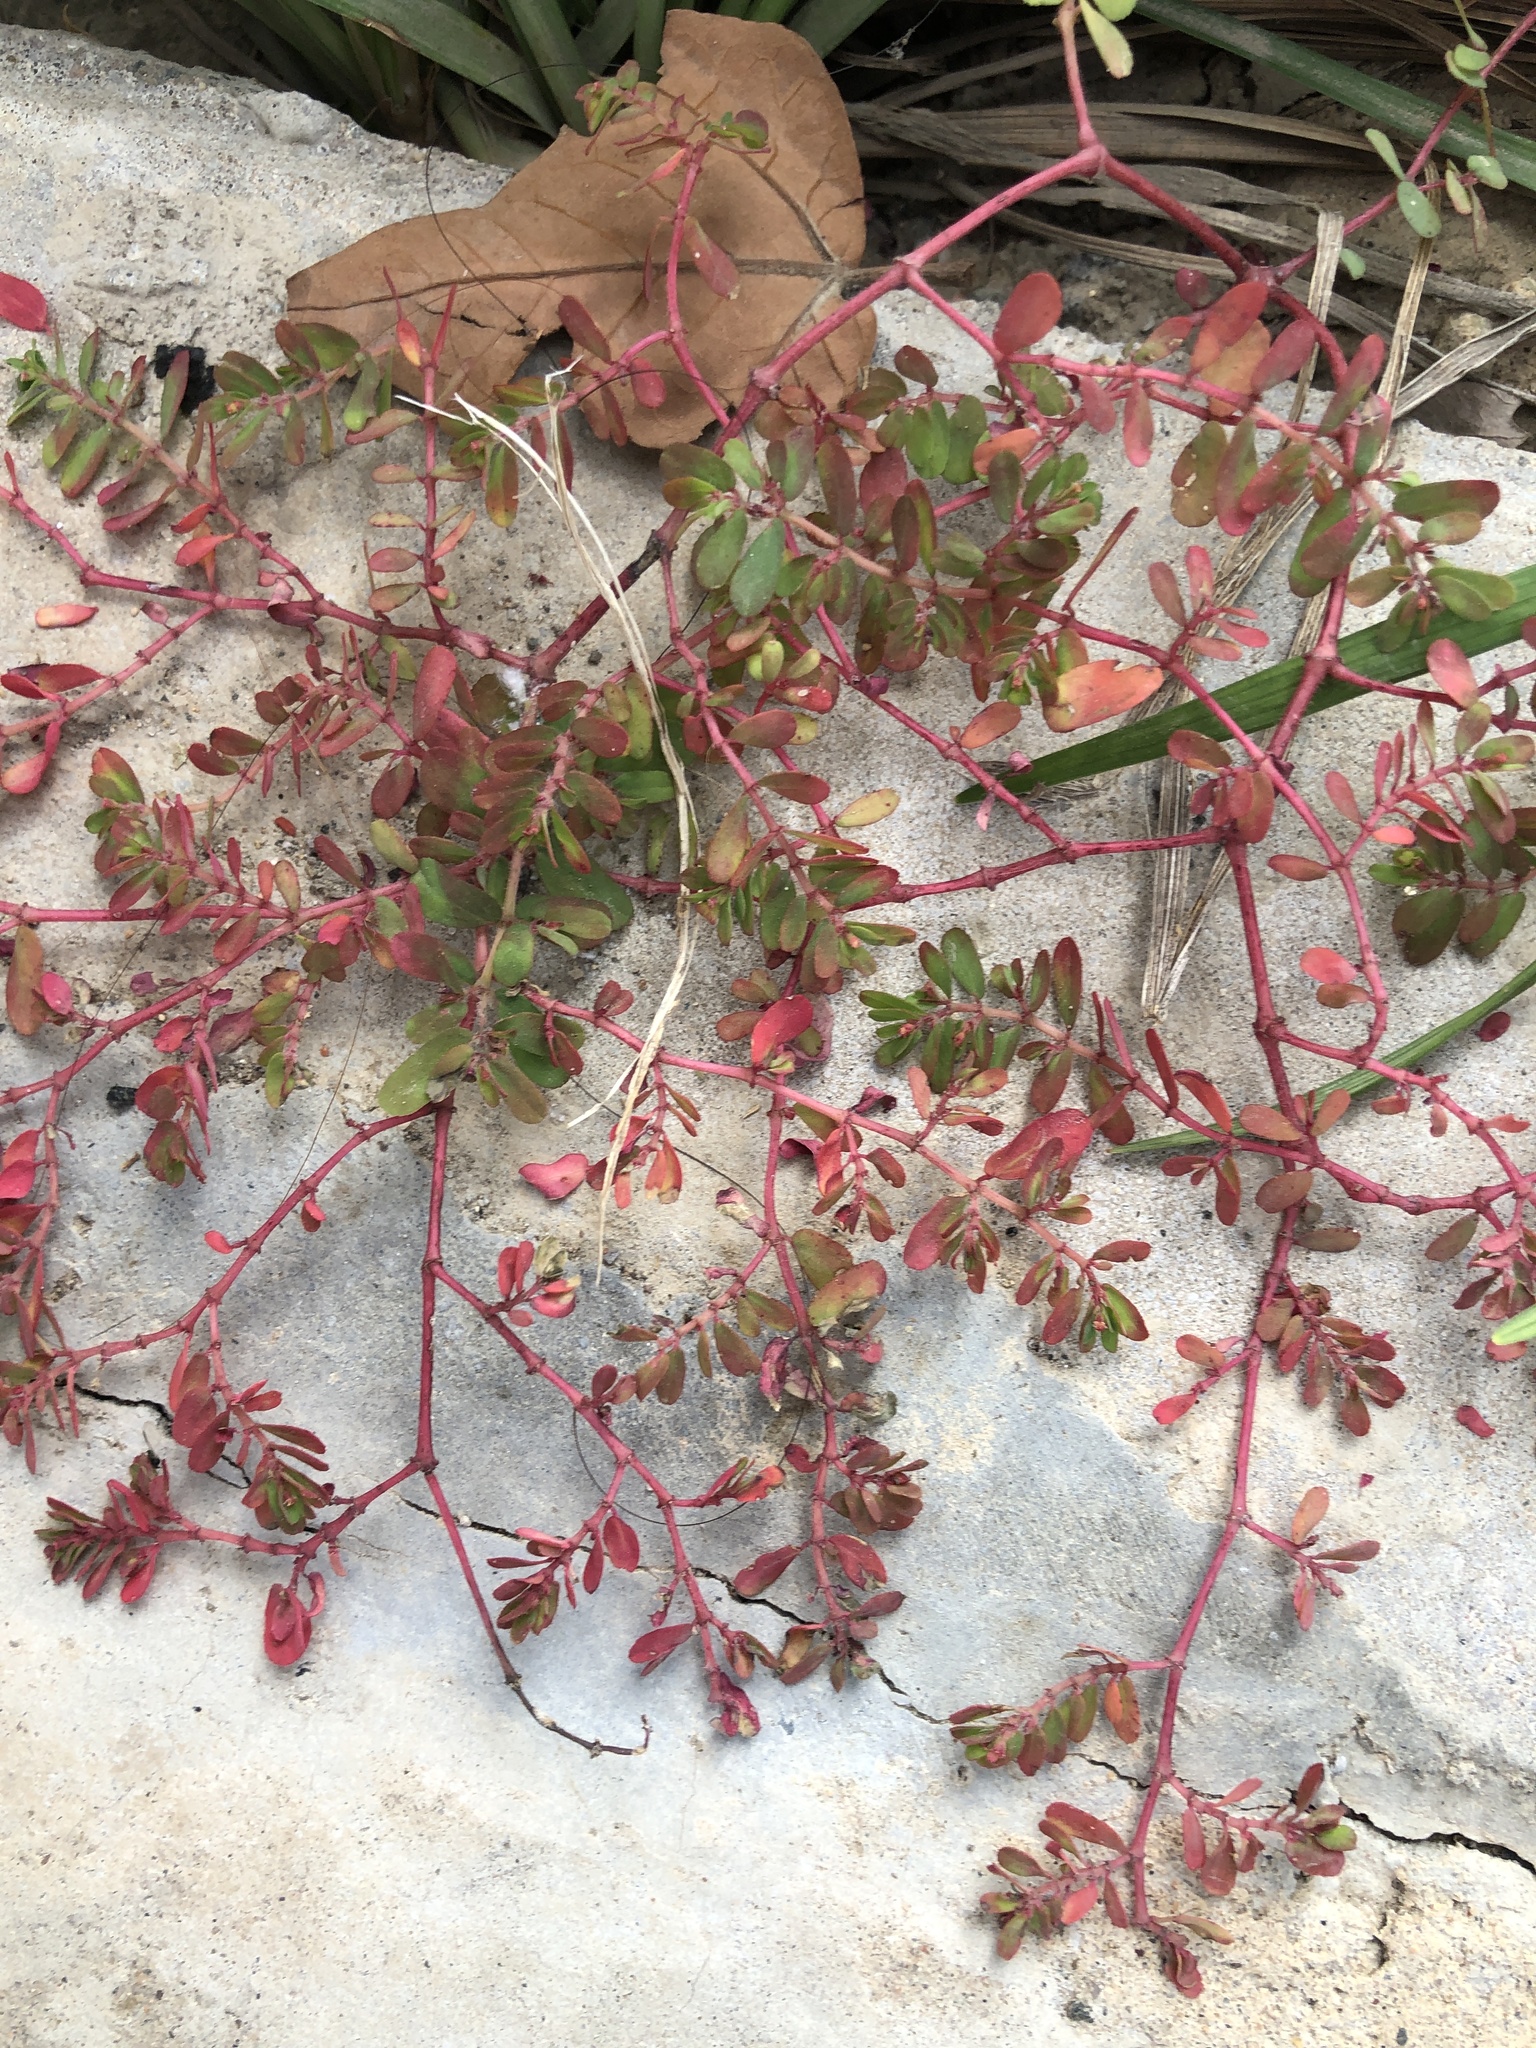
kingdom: Plantae
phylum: Tracheophyta
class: Magnoliopsida
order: Malpighiales
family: Euphorbiaceae
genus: Euphorbia
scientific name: Euphorbia humifusa
